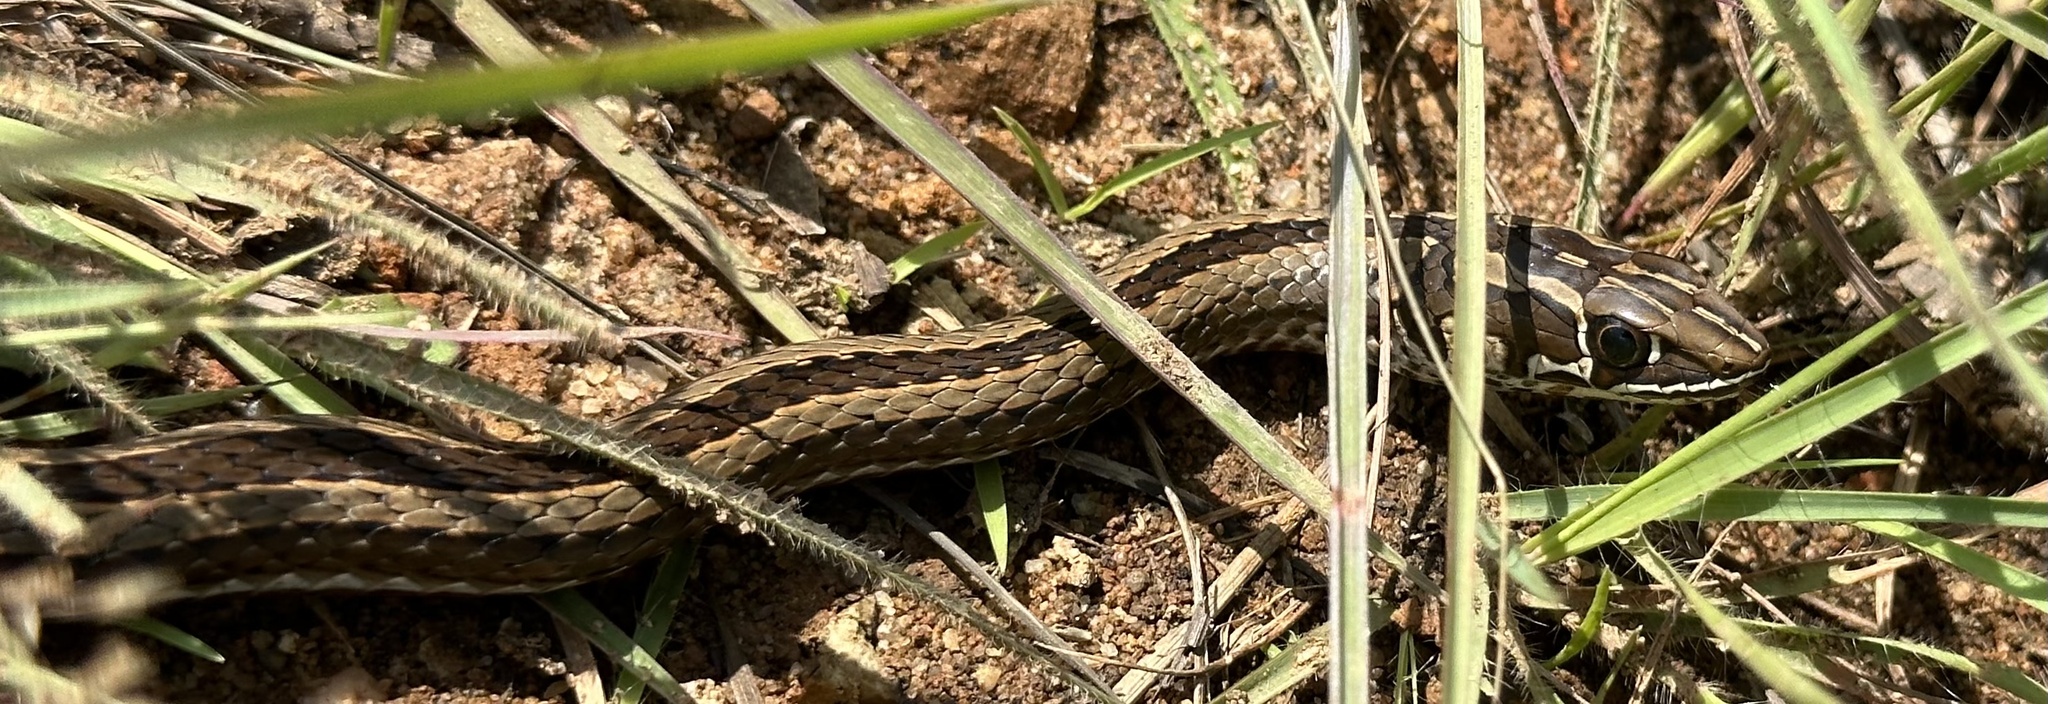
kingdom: Animalia
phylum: Chordata
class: Squamata
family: Psammophiidae
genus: Psammophis
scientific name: Psammophis crucifer
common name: Cross-marked grass snake
